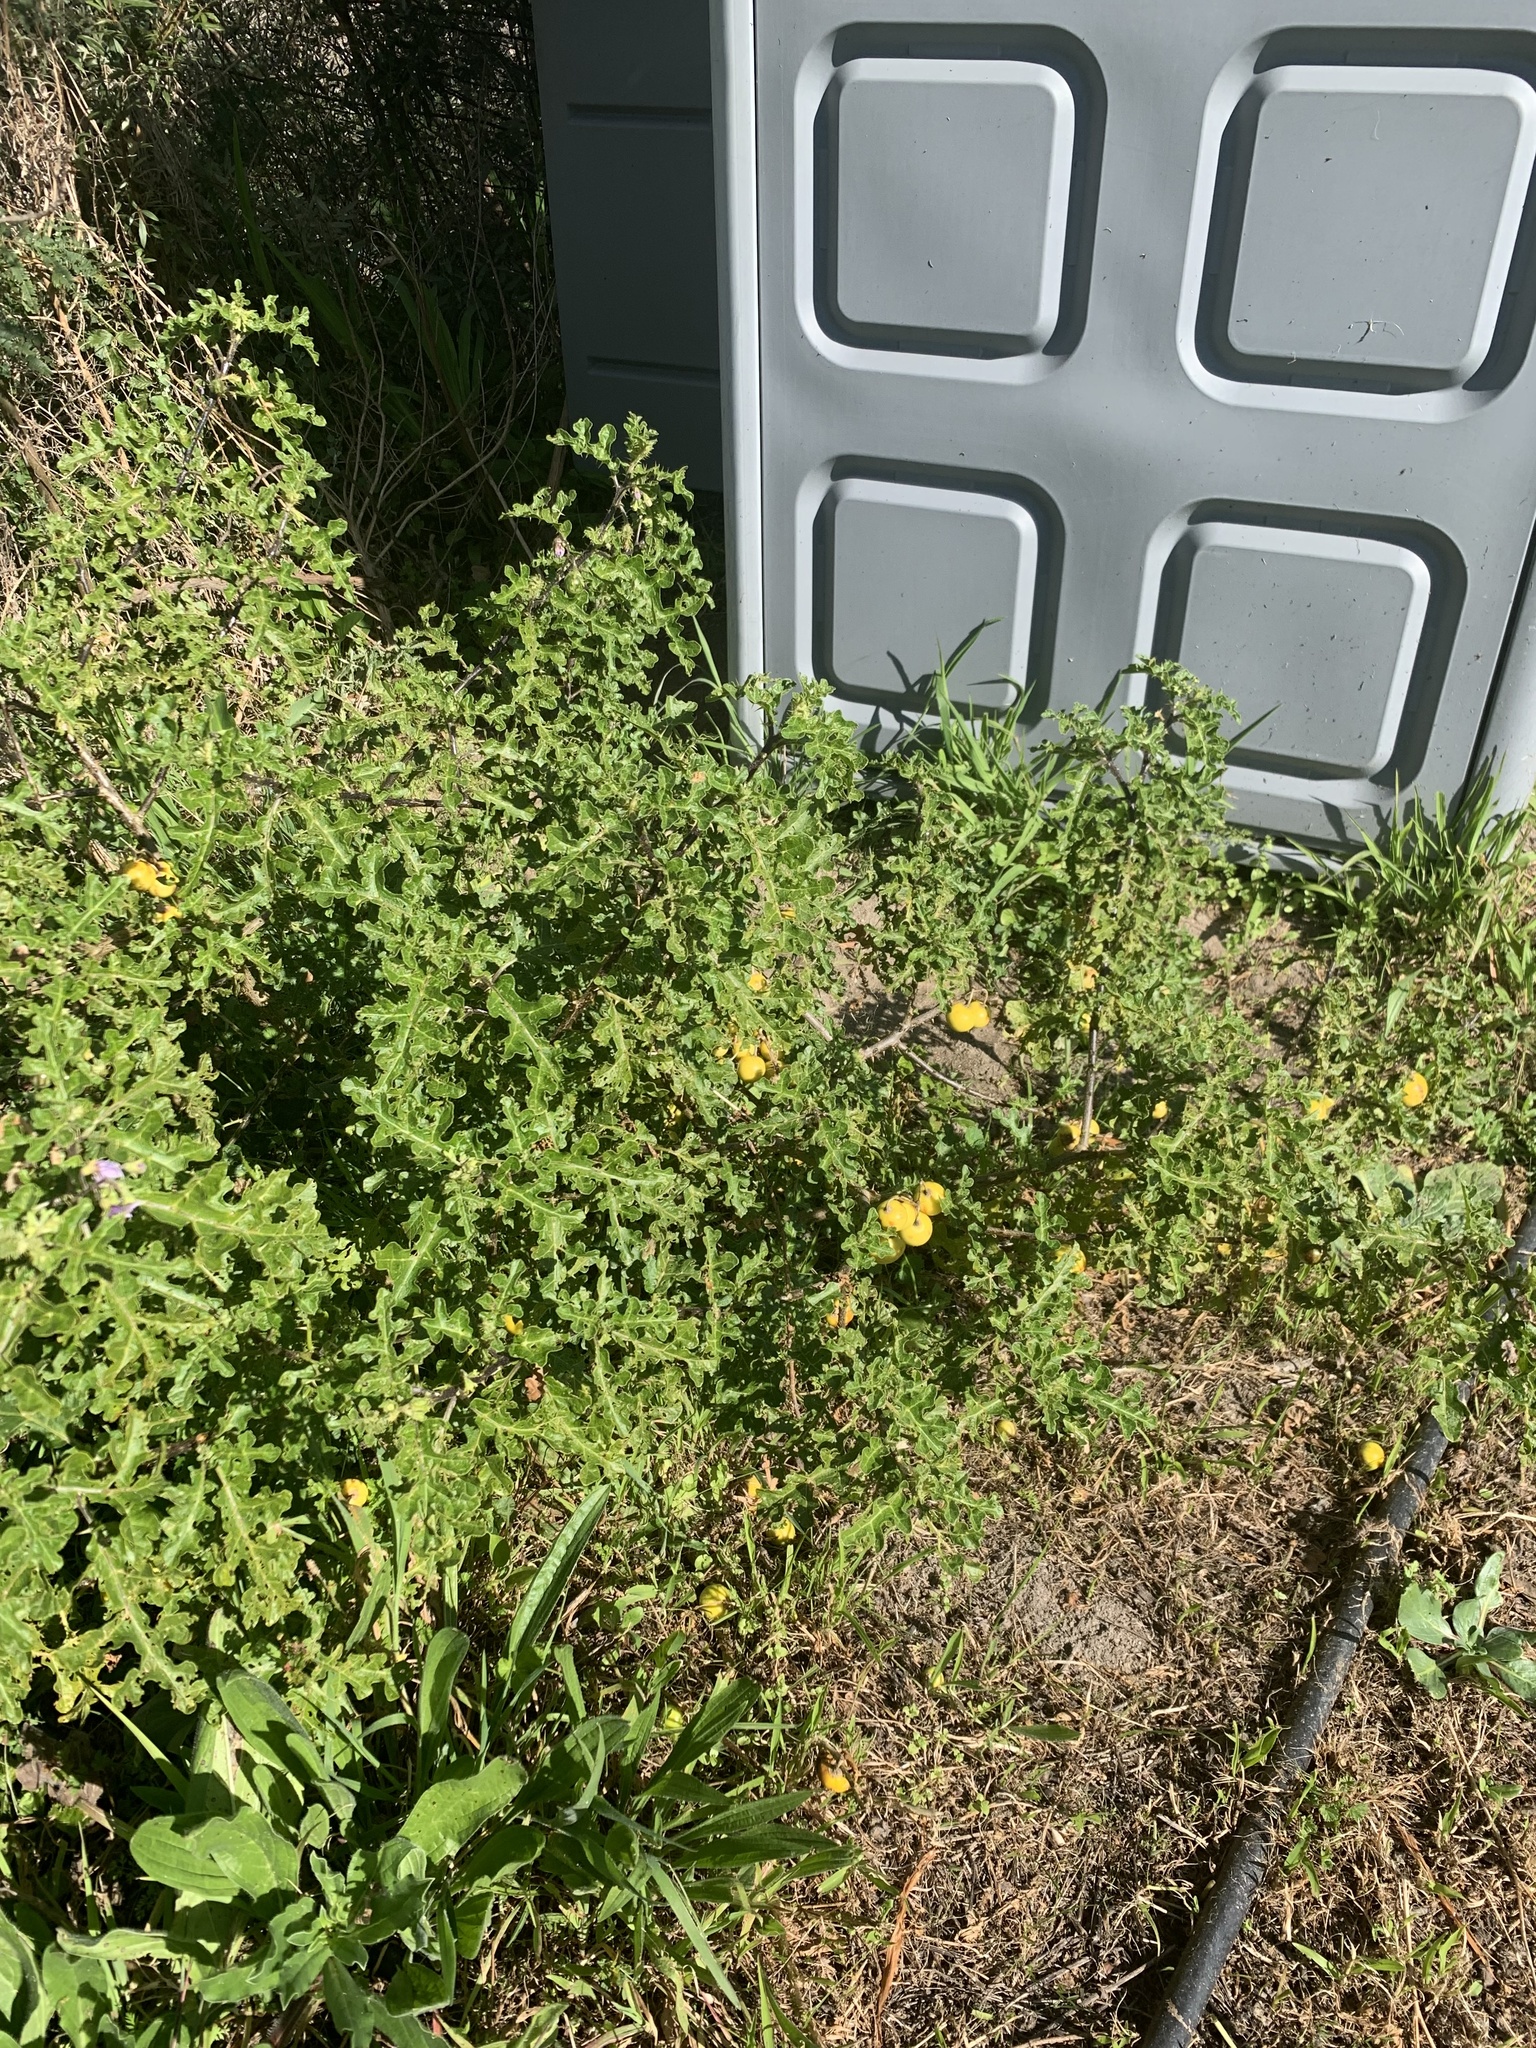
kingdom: Plantae
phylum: Tracheophyta
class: Magnoliopsida
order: Solanales
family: Solanaceae
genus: Solanum
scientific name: Solanum linnaeanum
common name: Nightshade
